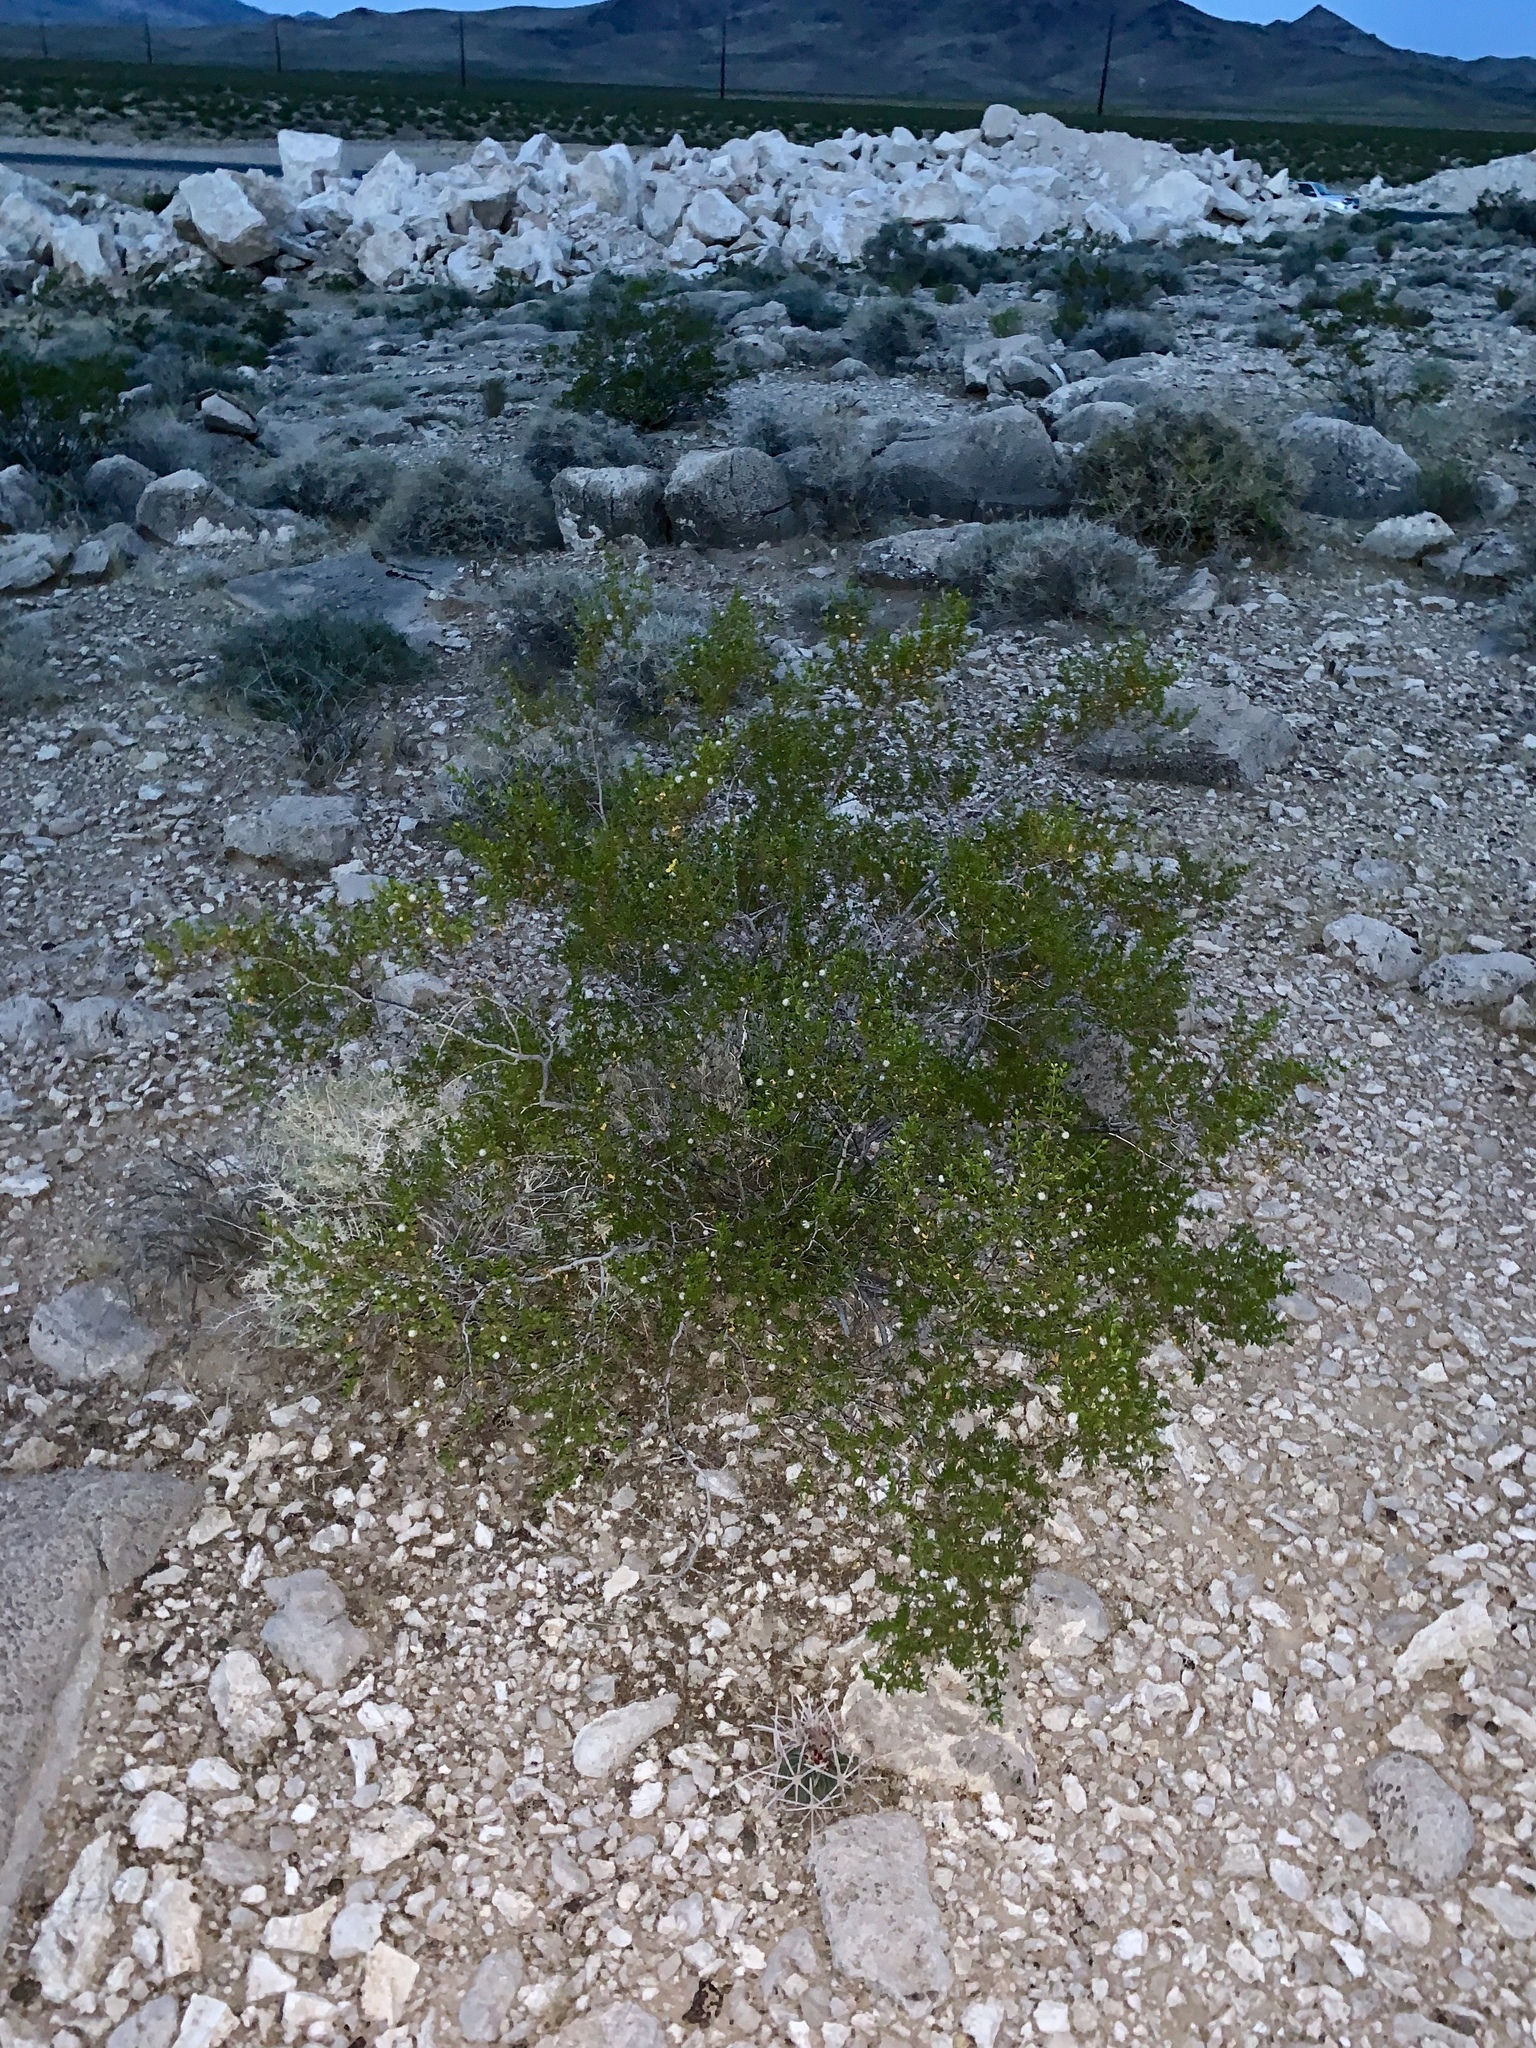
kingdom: Plantae
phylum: Tracheophyta
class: Magnoliopsida
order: Zygophyllales
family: Zygophyllaceae
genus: Larrea
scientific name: Larrea tridentata
